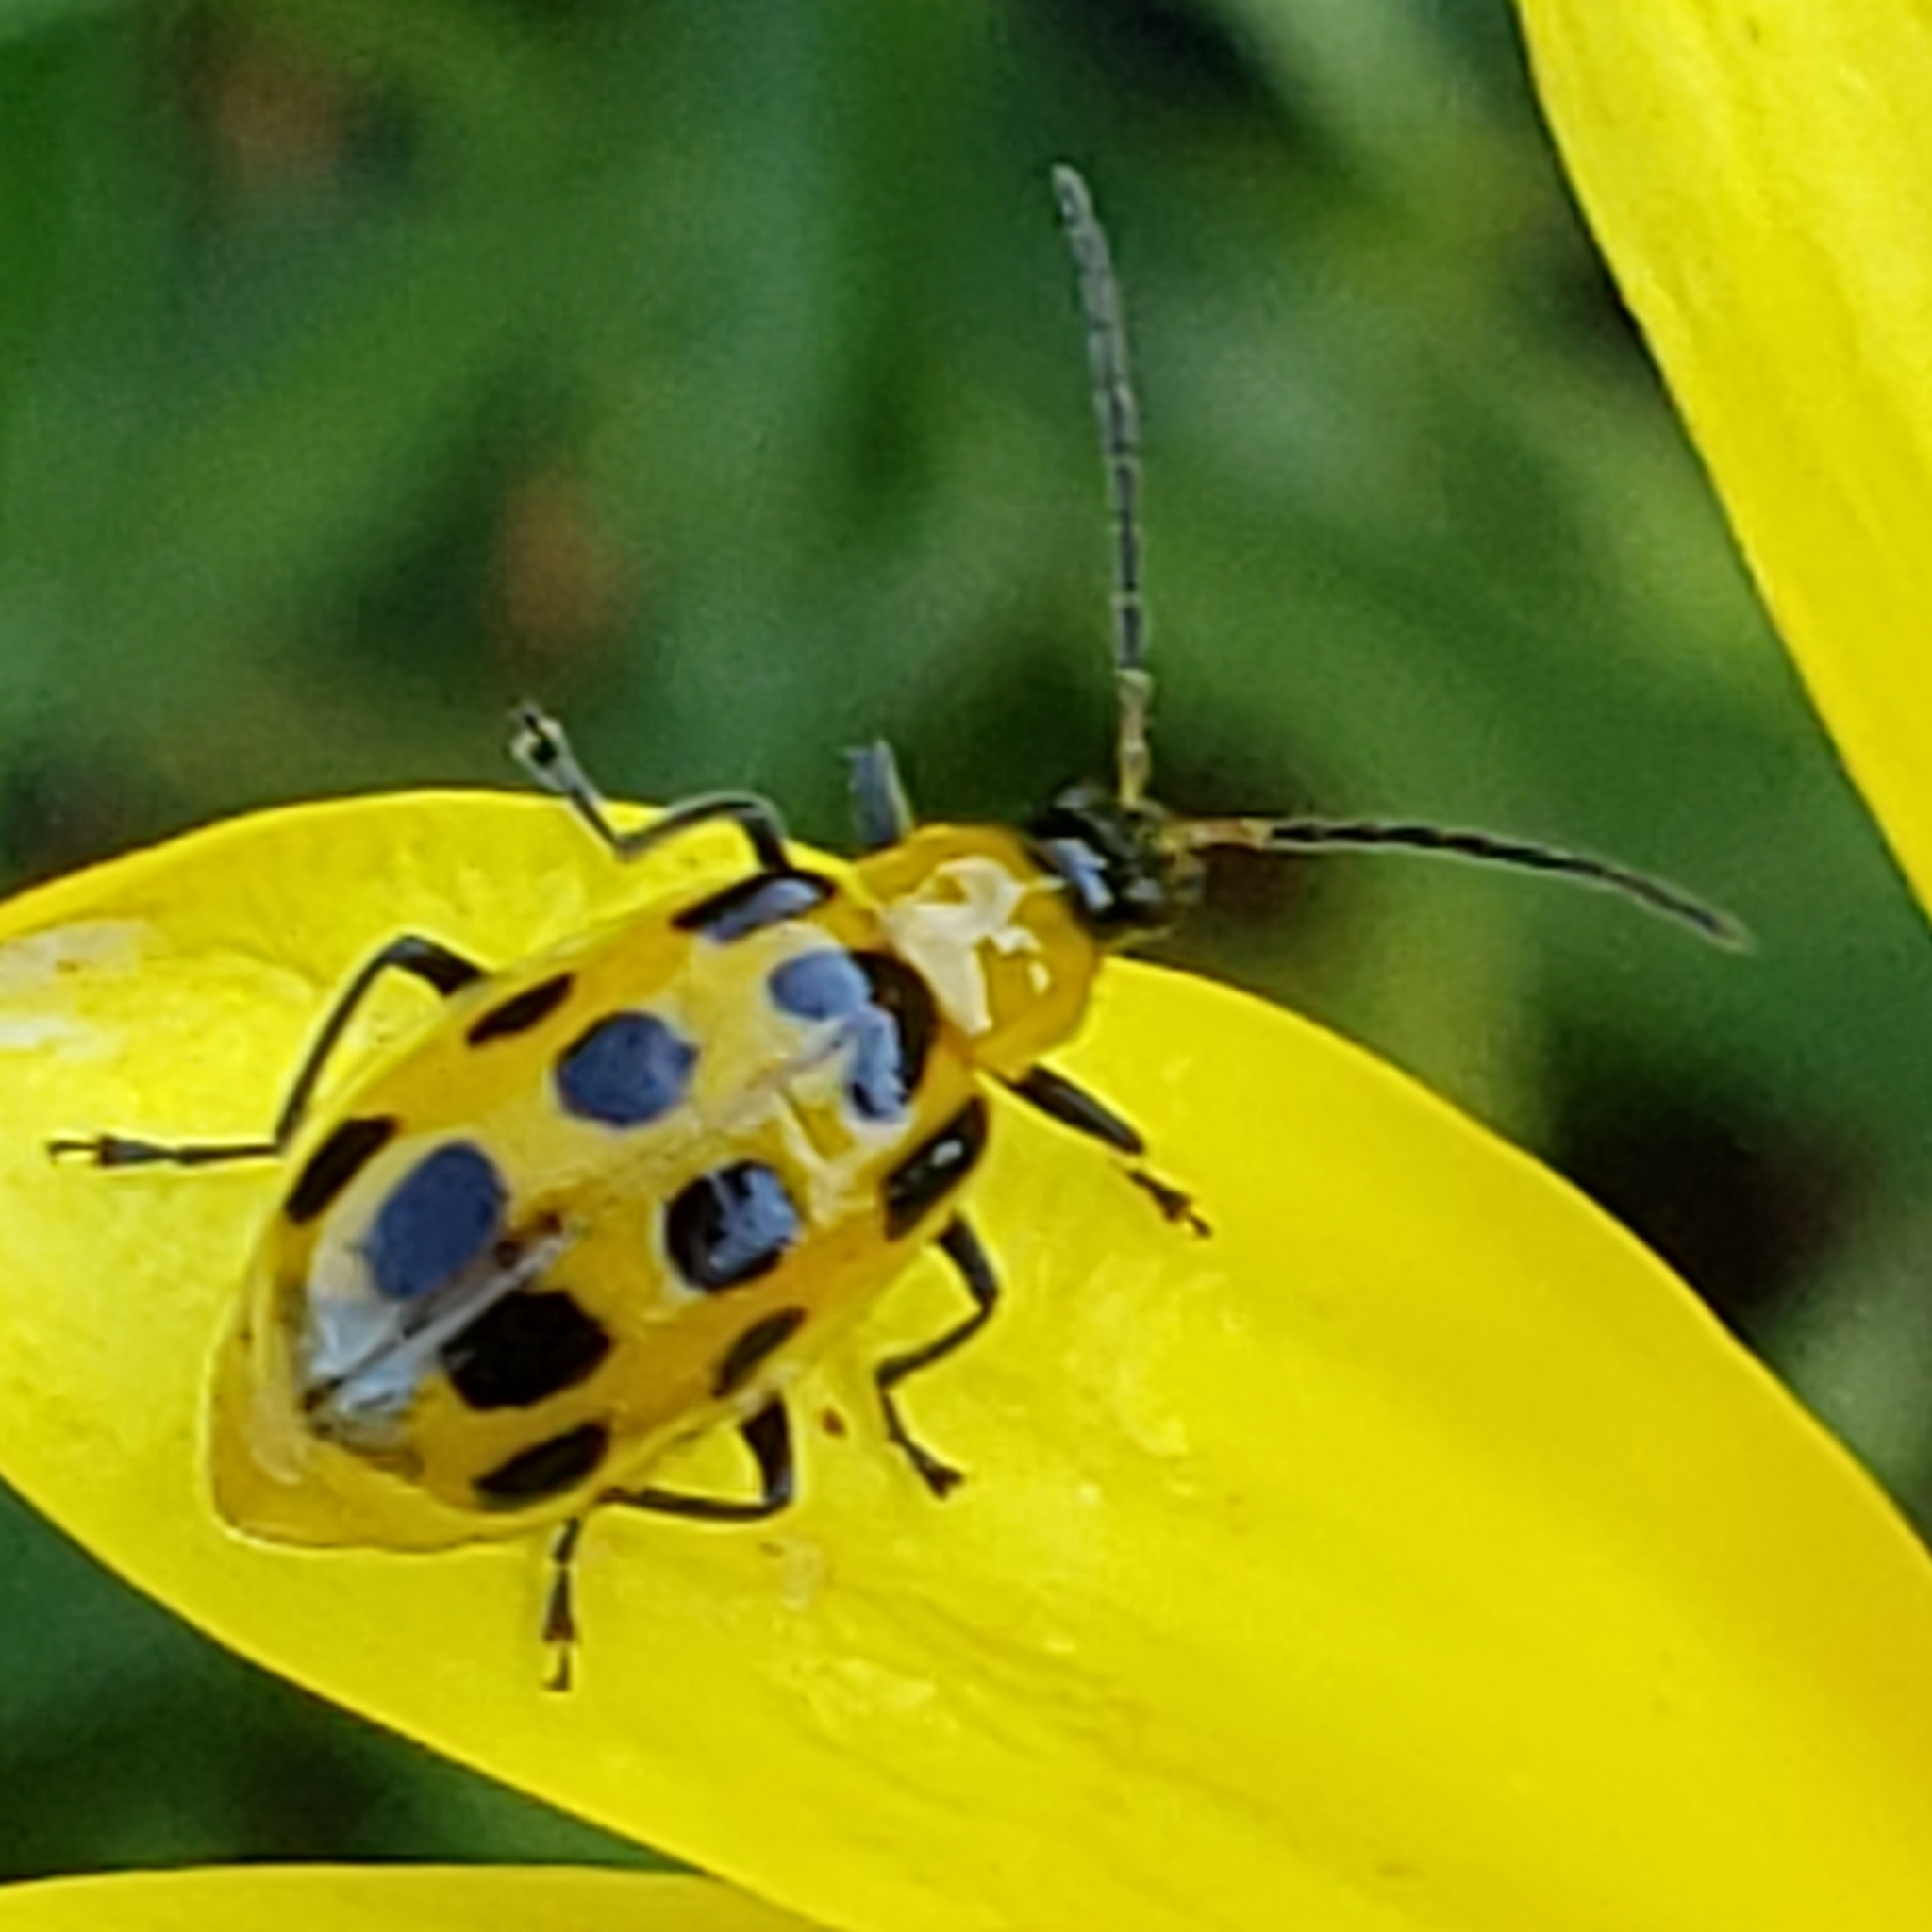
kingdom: Animalia
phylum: Arthropoda
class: Insecta
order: Coleoptera
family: Chrysomelidae
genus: Diabrotica
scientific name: Diabrotica undecimpunctata
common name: Spotted cucumber beetle
